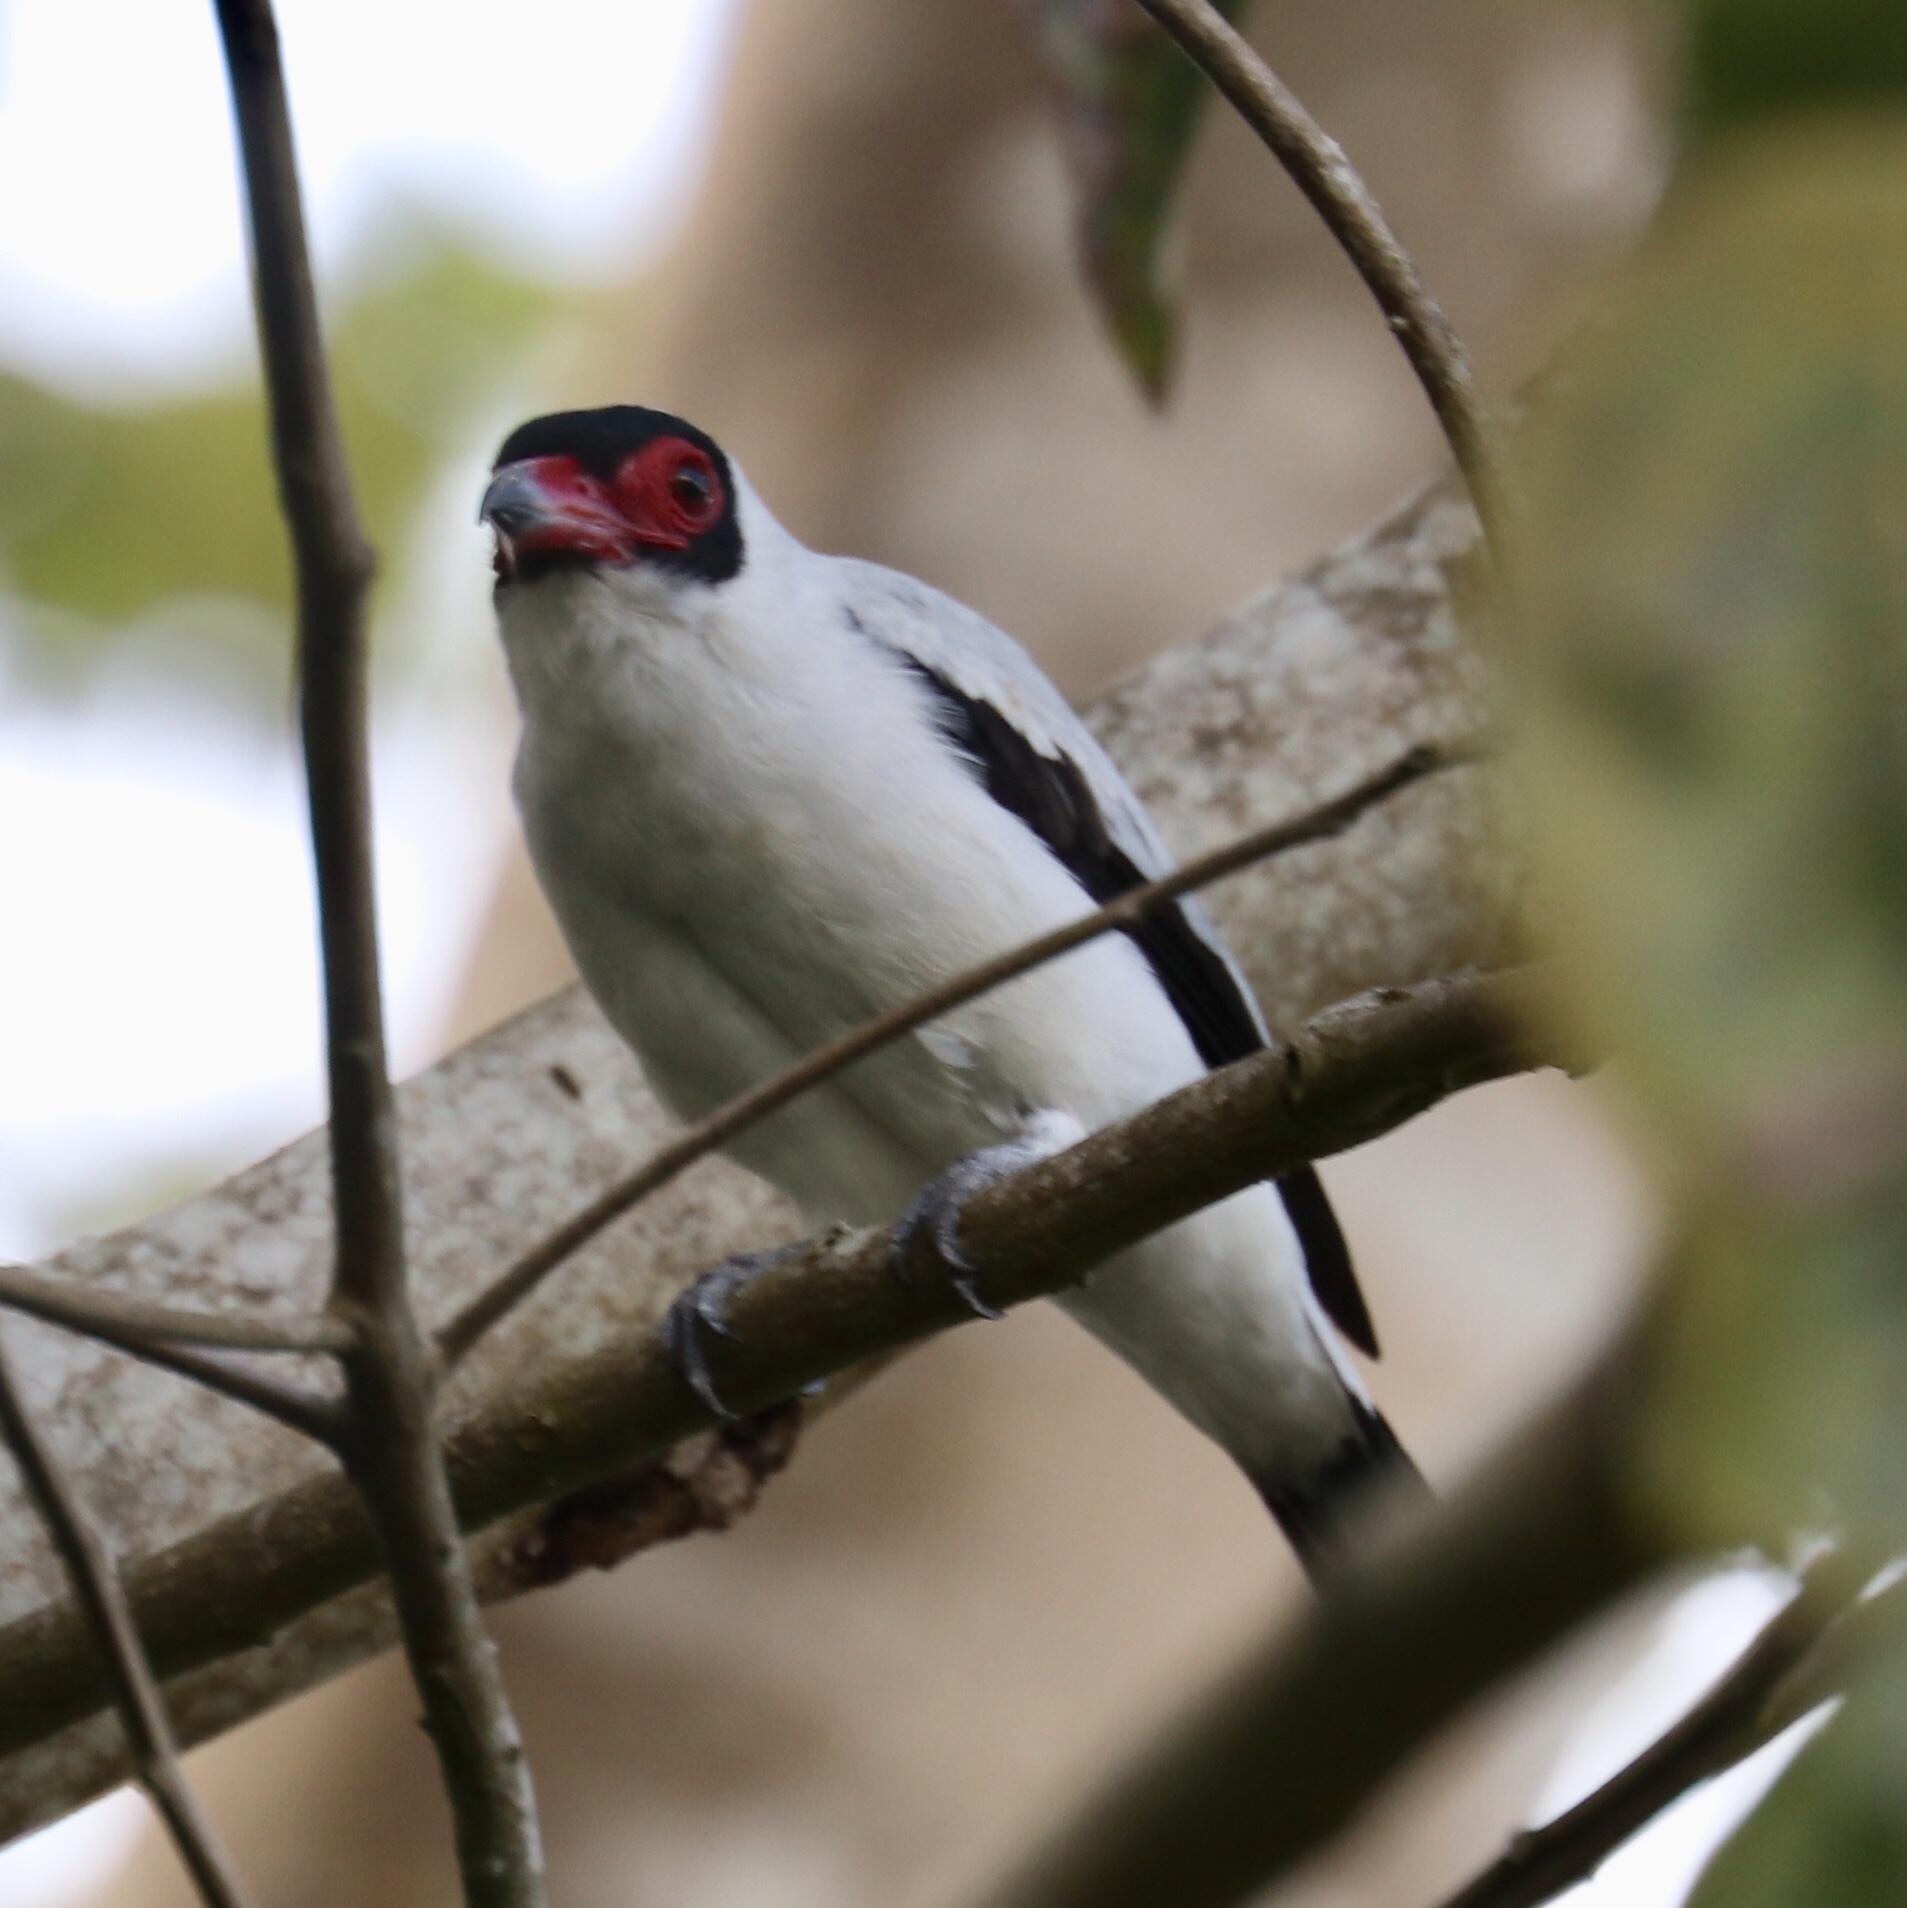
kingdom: Animalia
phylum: Chordata
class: Aves
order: Passeriformes
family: Cotingidae
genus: Tityra
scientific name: Tityra semifasciata
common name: Masked tityra
